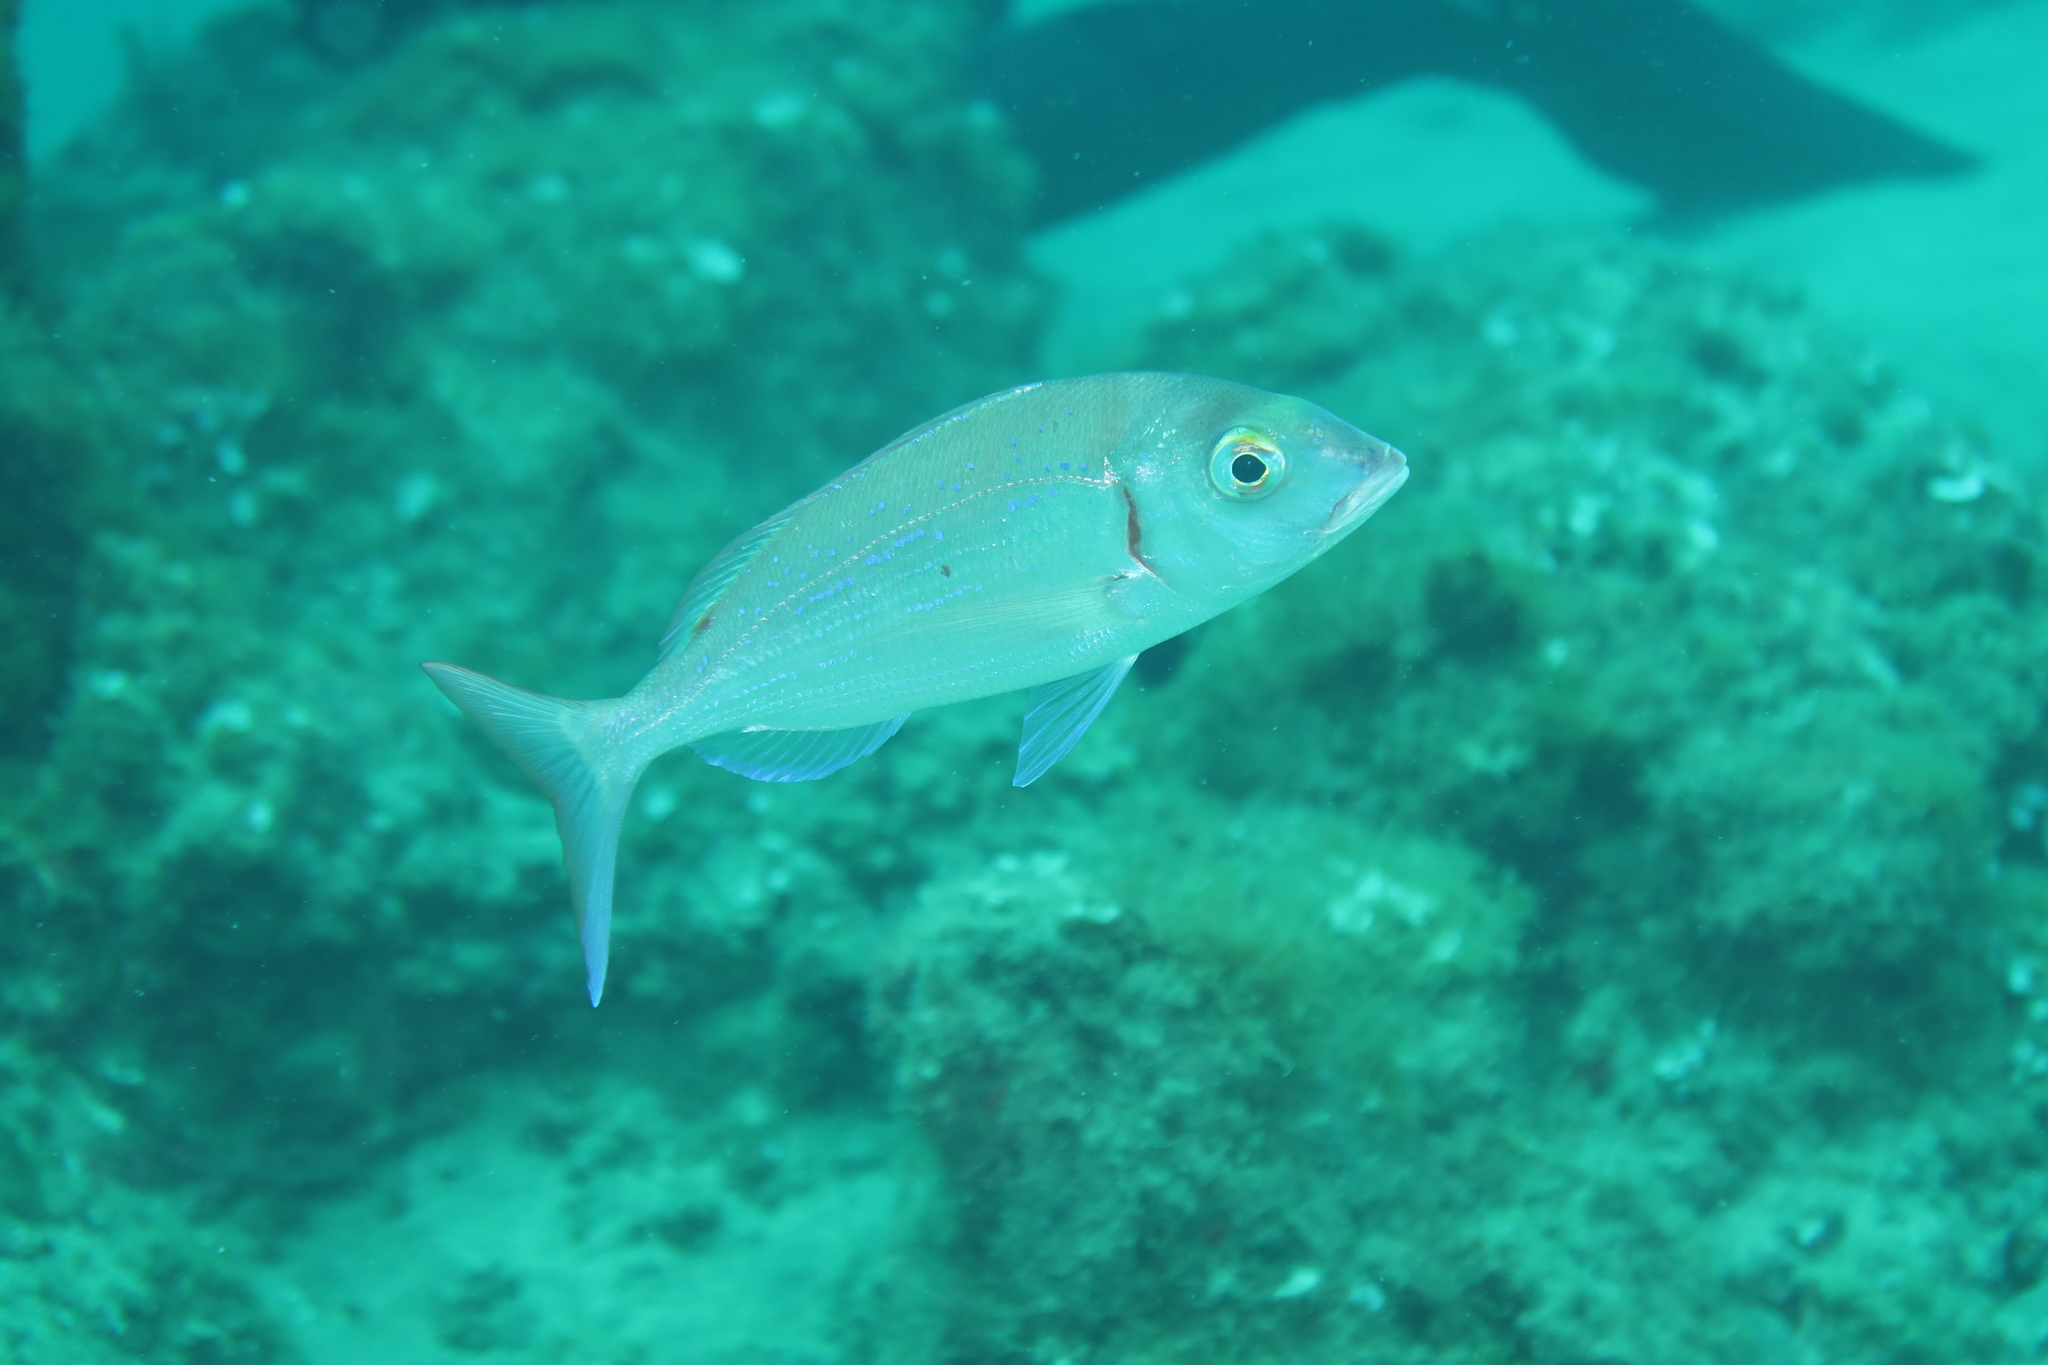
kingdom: Animalia
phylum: Chordata
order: Perciformes
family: Sparidae
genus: Pagellus
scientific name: Pagellus erythrinus
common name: Pandora
